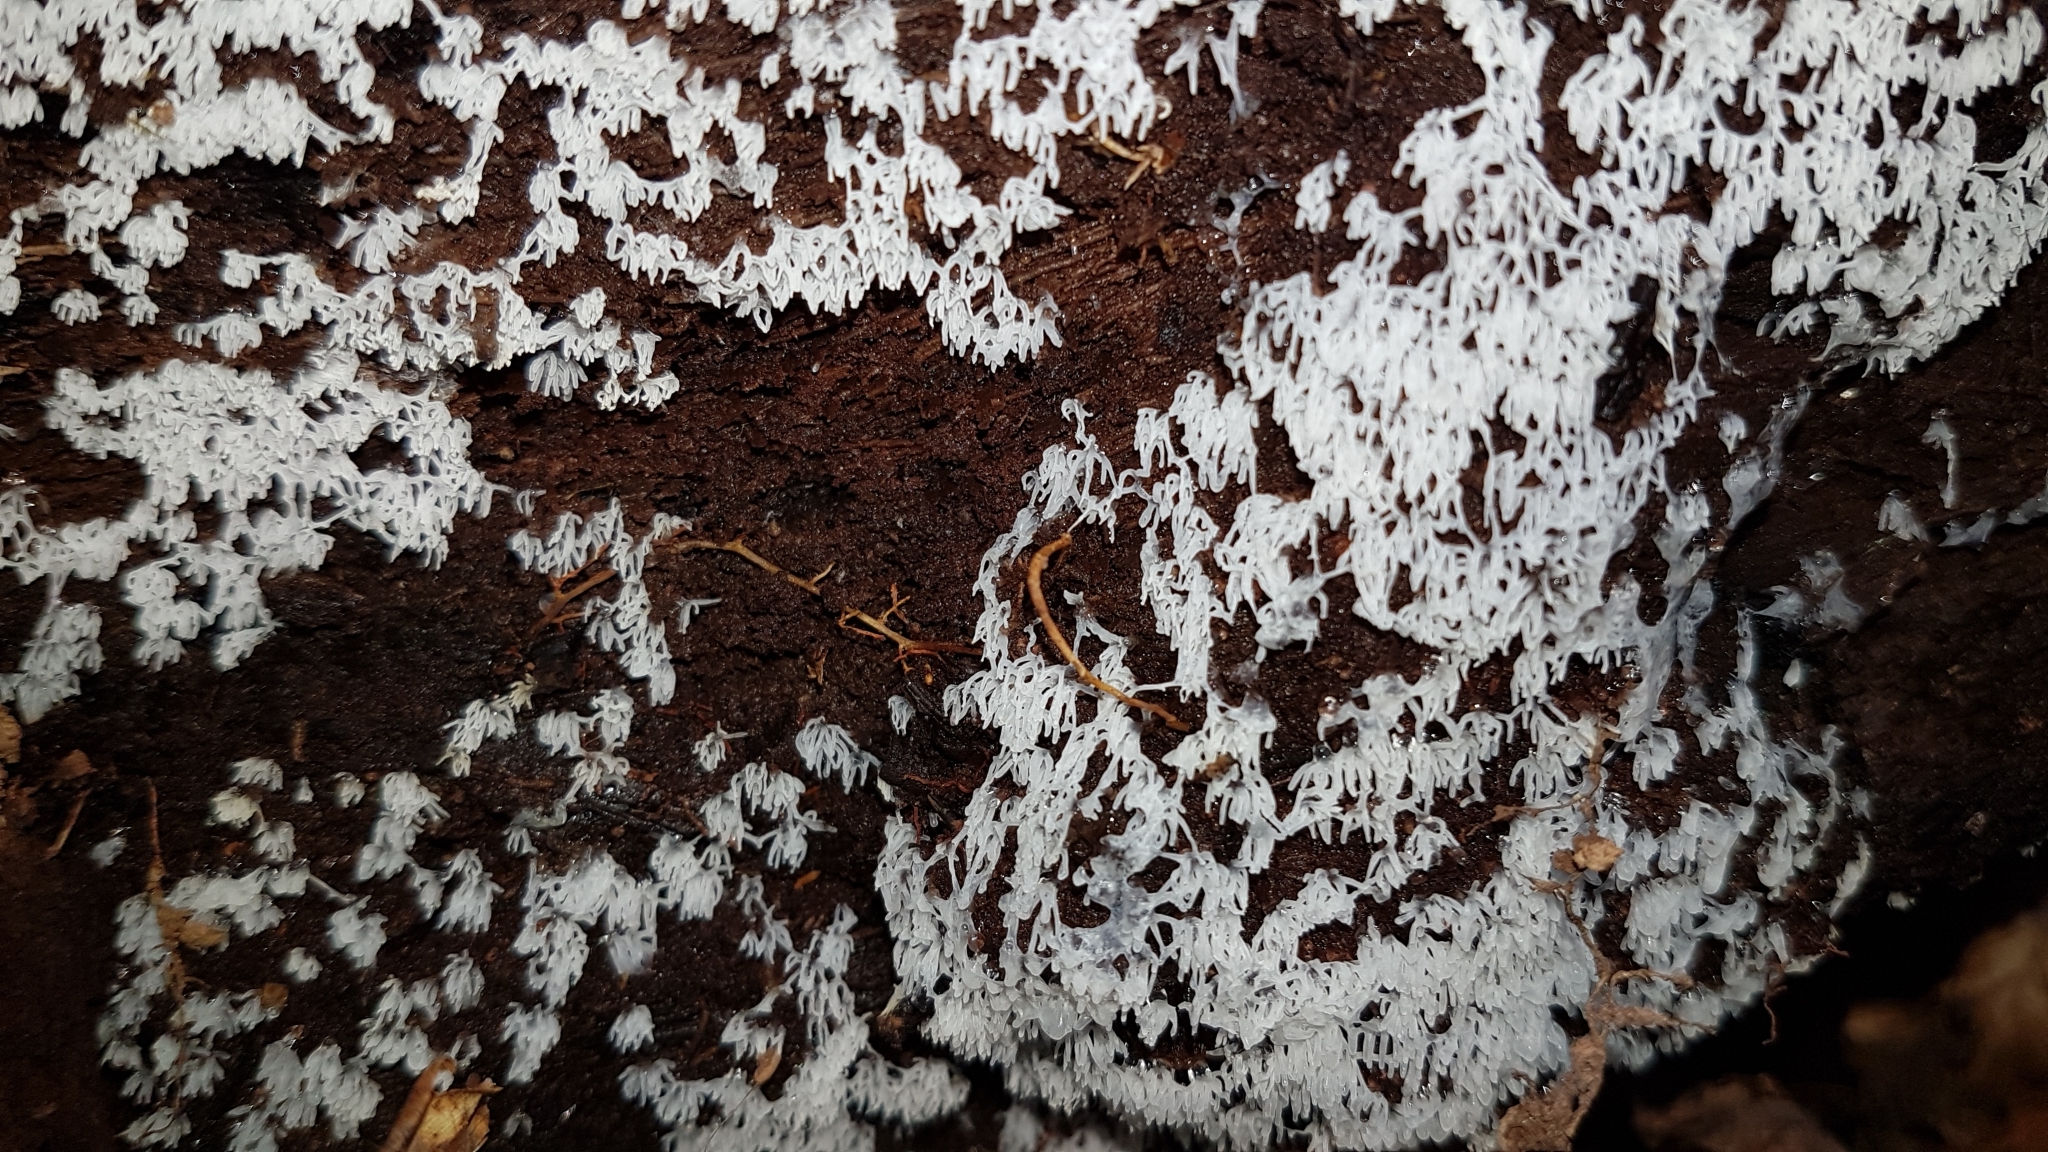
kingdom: Protozoa
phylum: Mycetozoa
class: Protosteliomycetes
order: Ceratiomyxales
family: Ceratiomyxaceae
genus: Ceratiomyxa
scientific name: Ceratiomyxa fruticulosa
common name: Honeycomb coral slime mold
